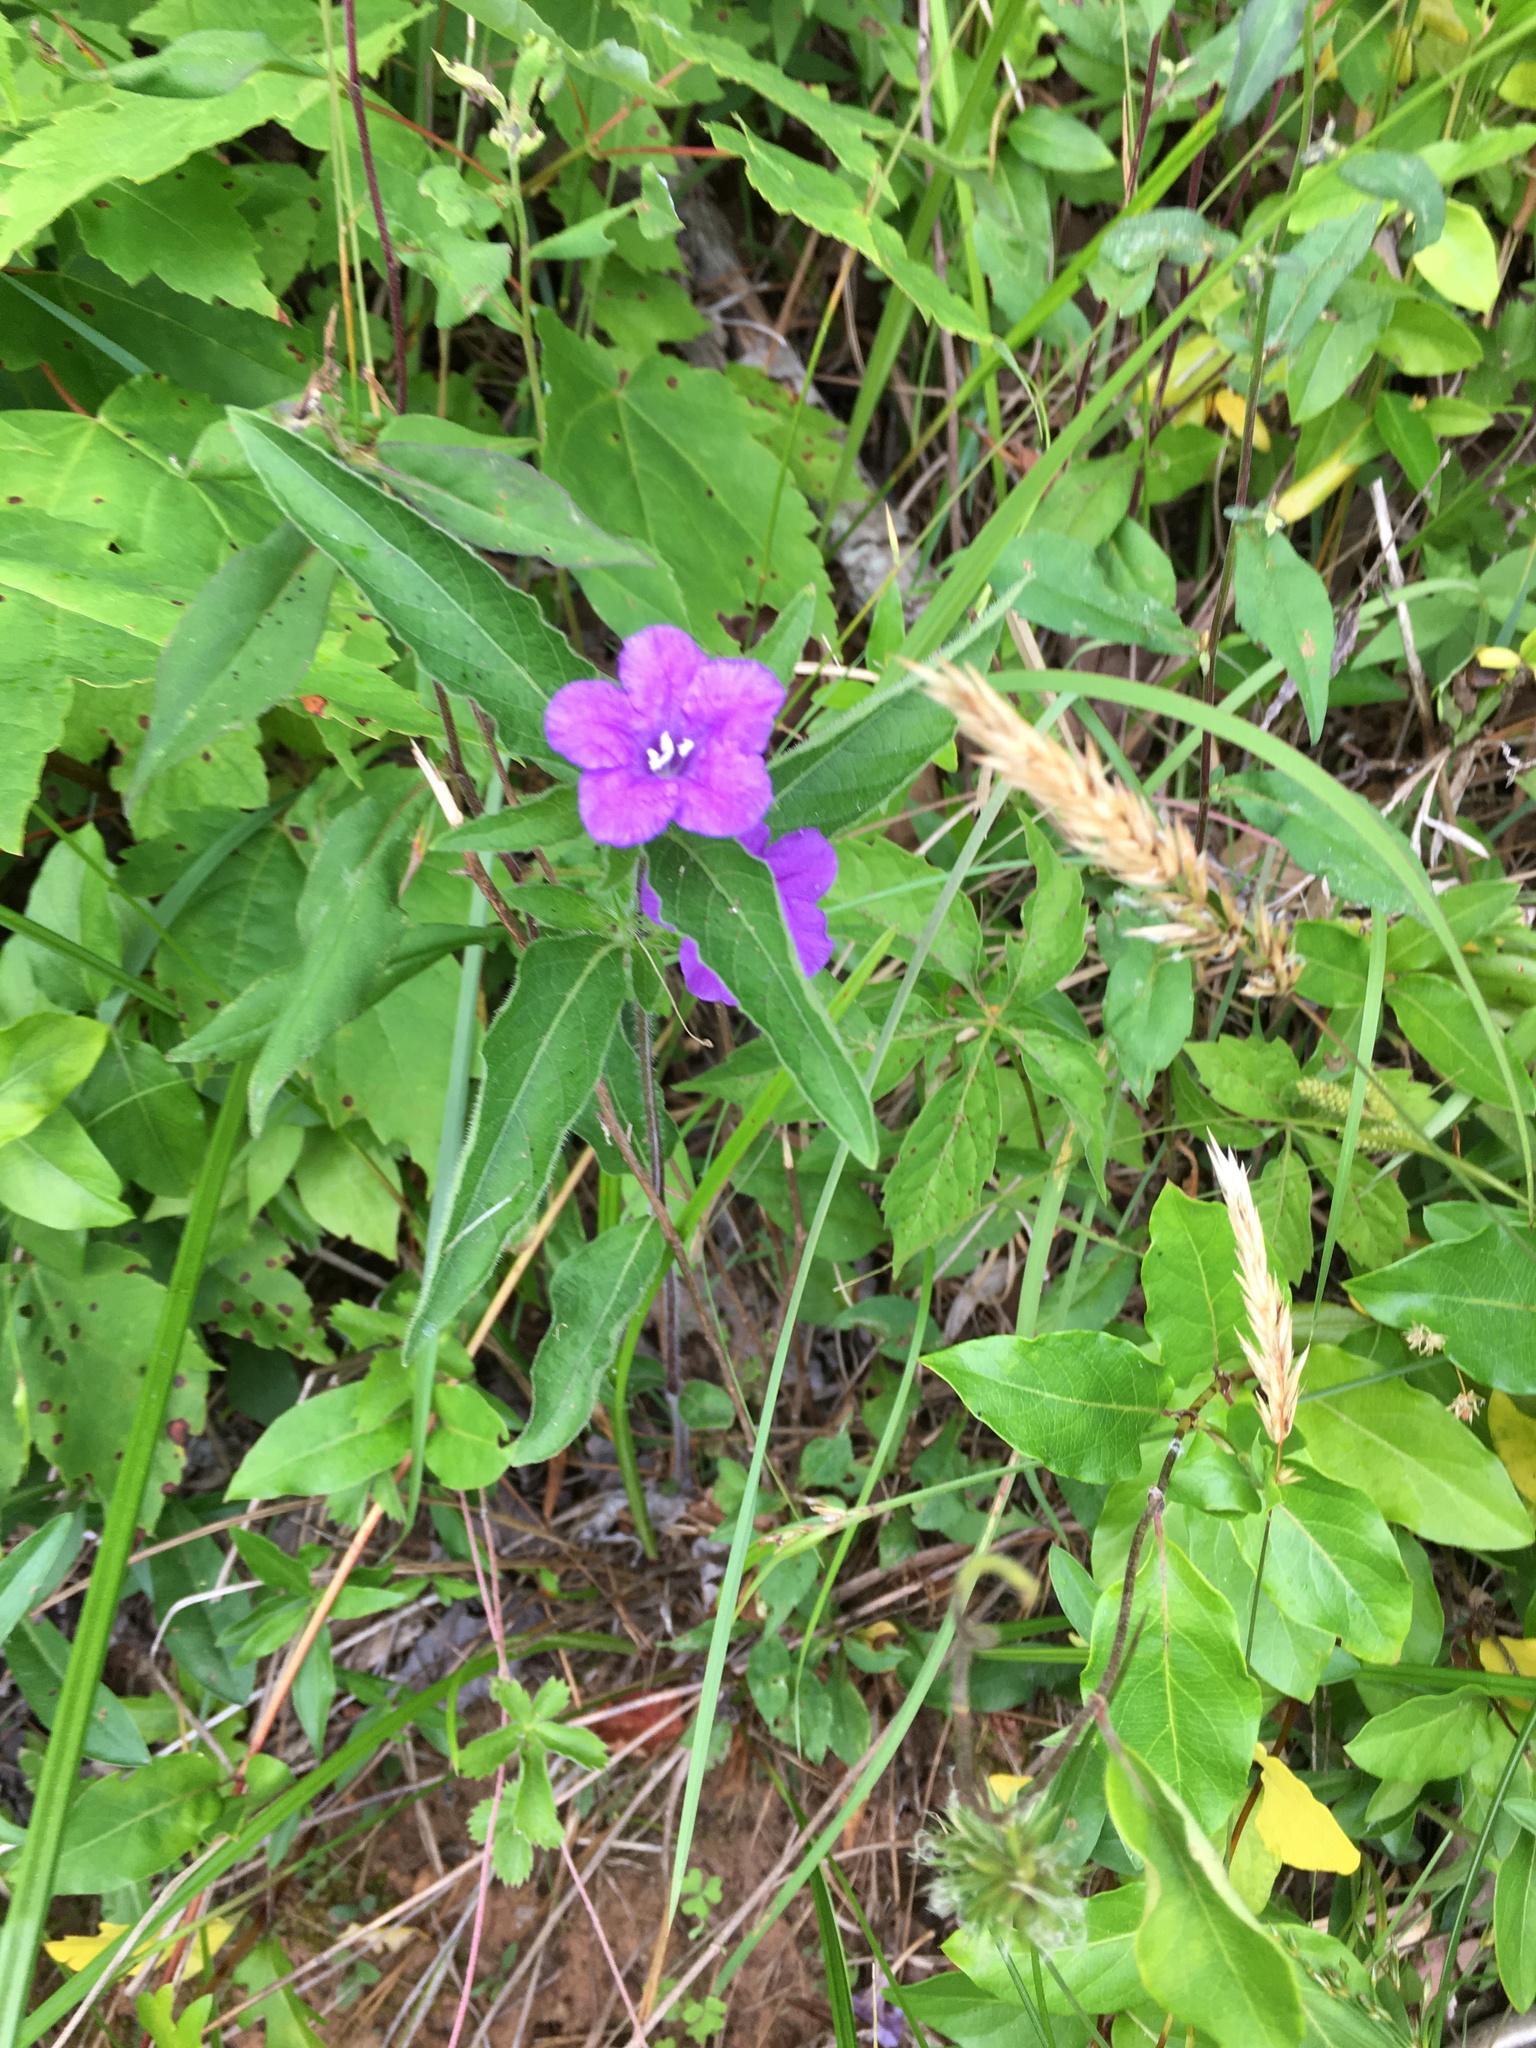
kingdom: Plantae
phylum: Tracheophyta
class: Magnoliopsida
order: Lamiales
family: Acanthaceae
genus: Ruellia
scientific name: Ruellia caroliniensis
